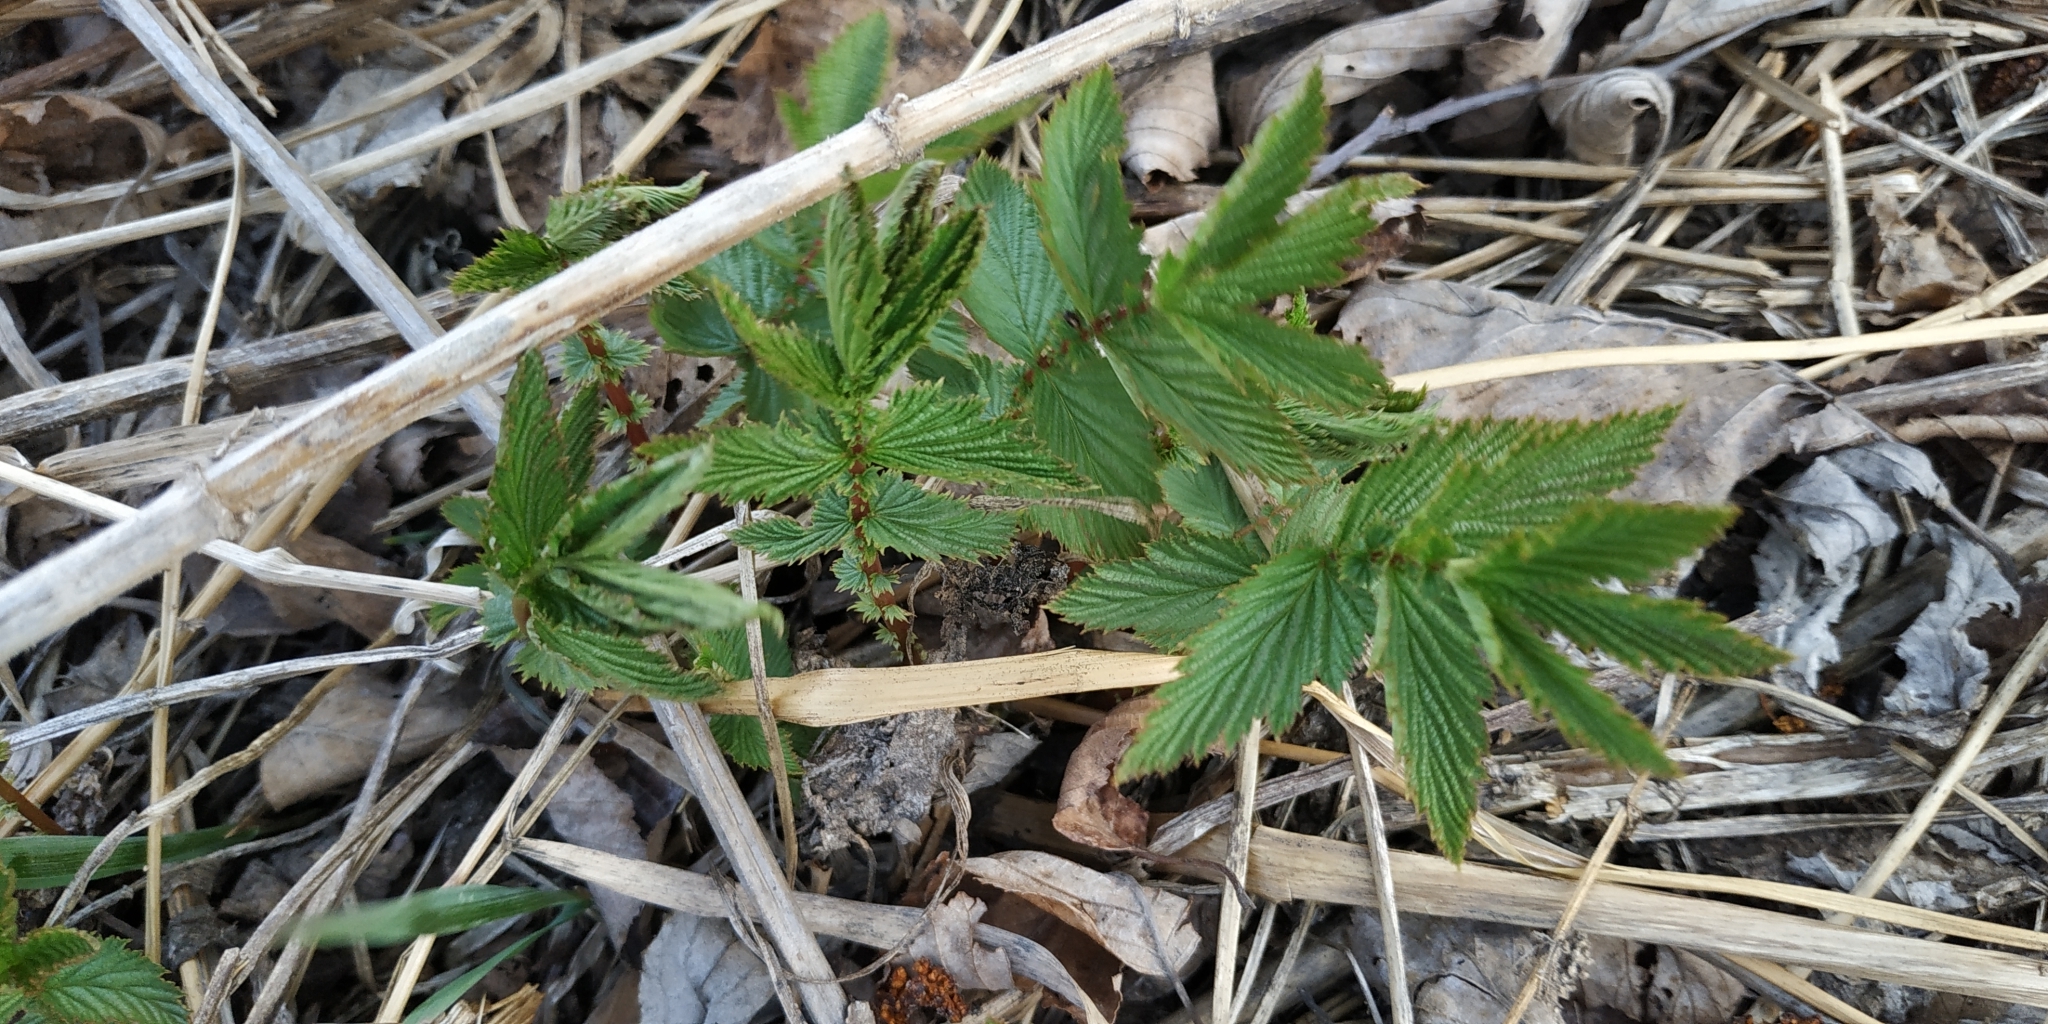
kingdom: Plantae
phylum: Tracheophyta
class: Magnoliopsida
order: Rosales
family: Rosaceae
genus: Filipendula
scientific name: Filipendula ulmaria
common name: Meadowsweet
